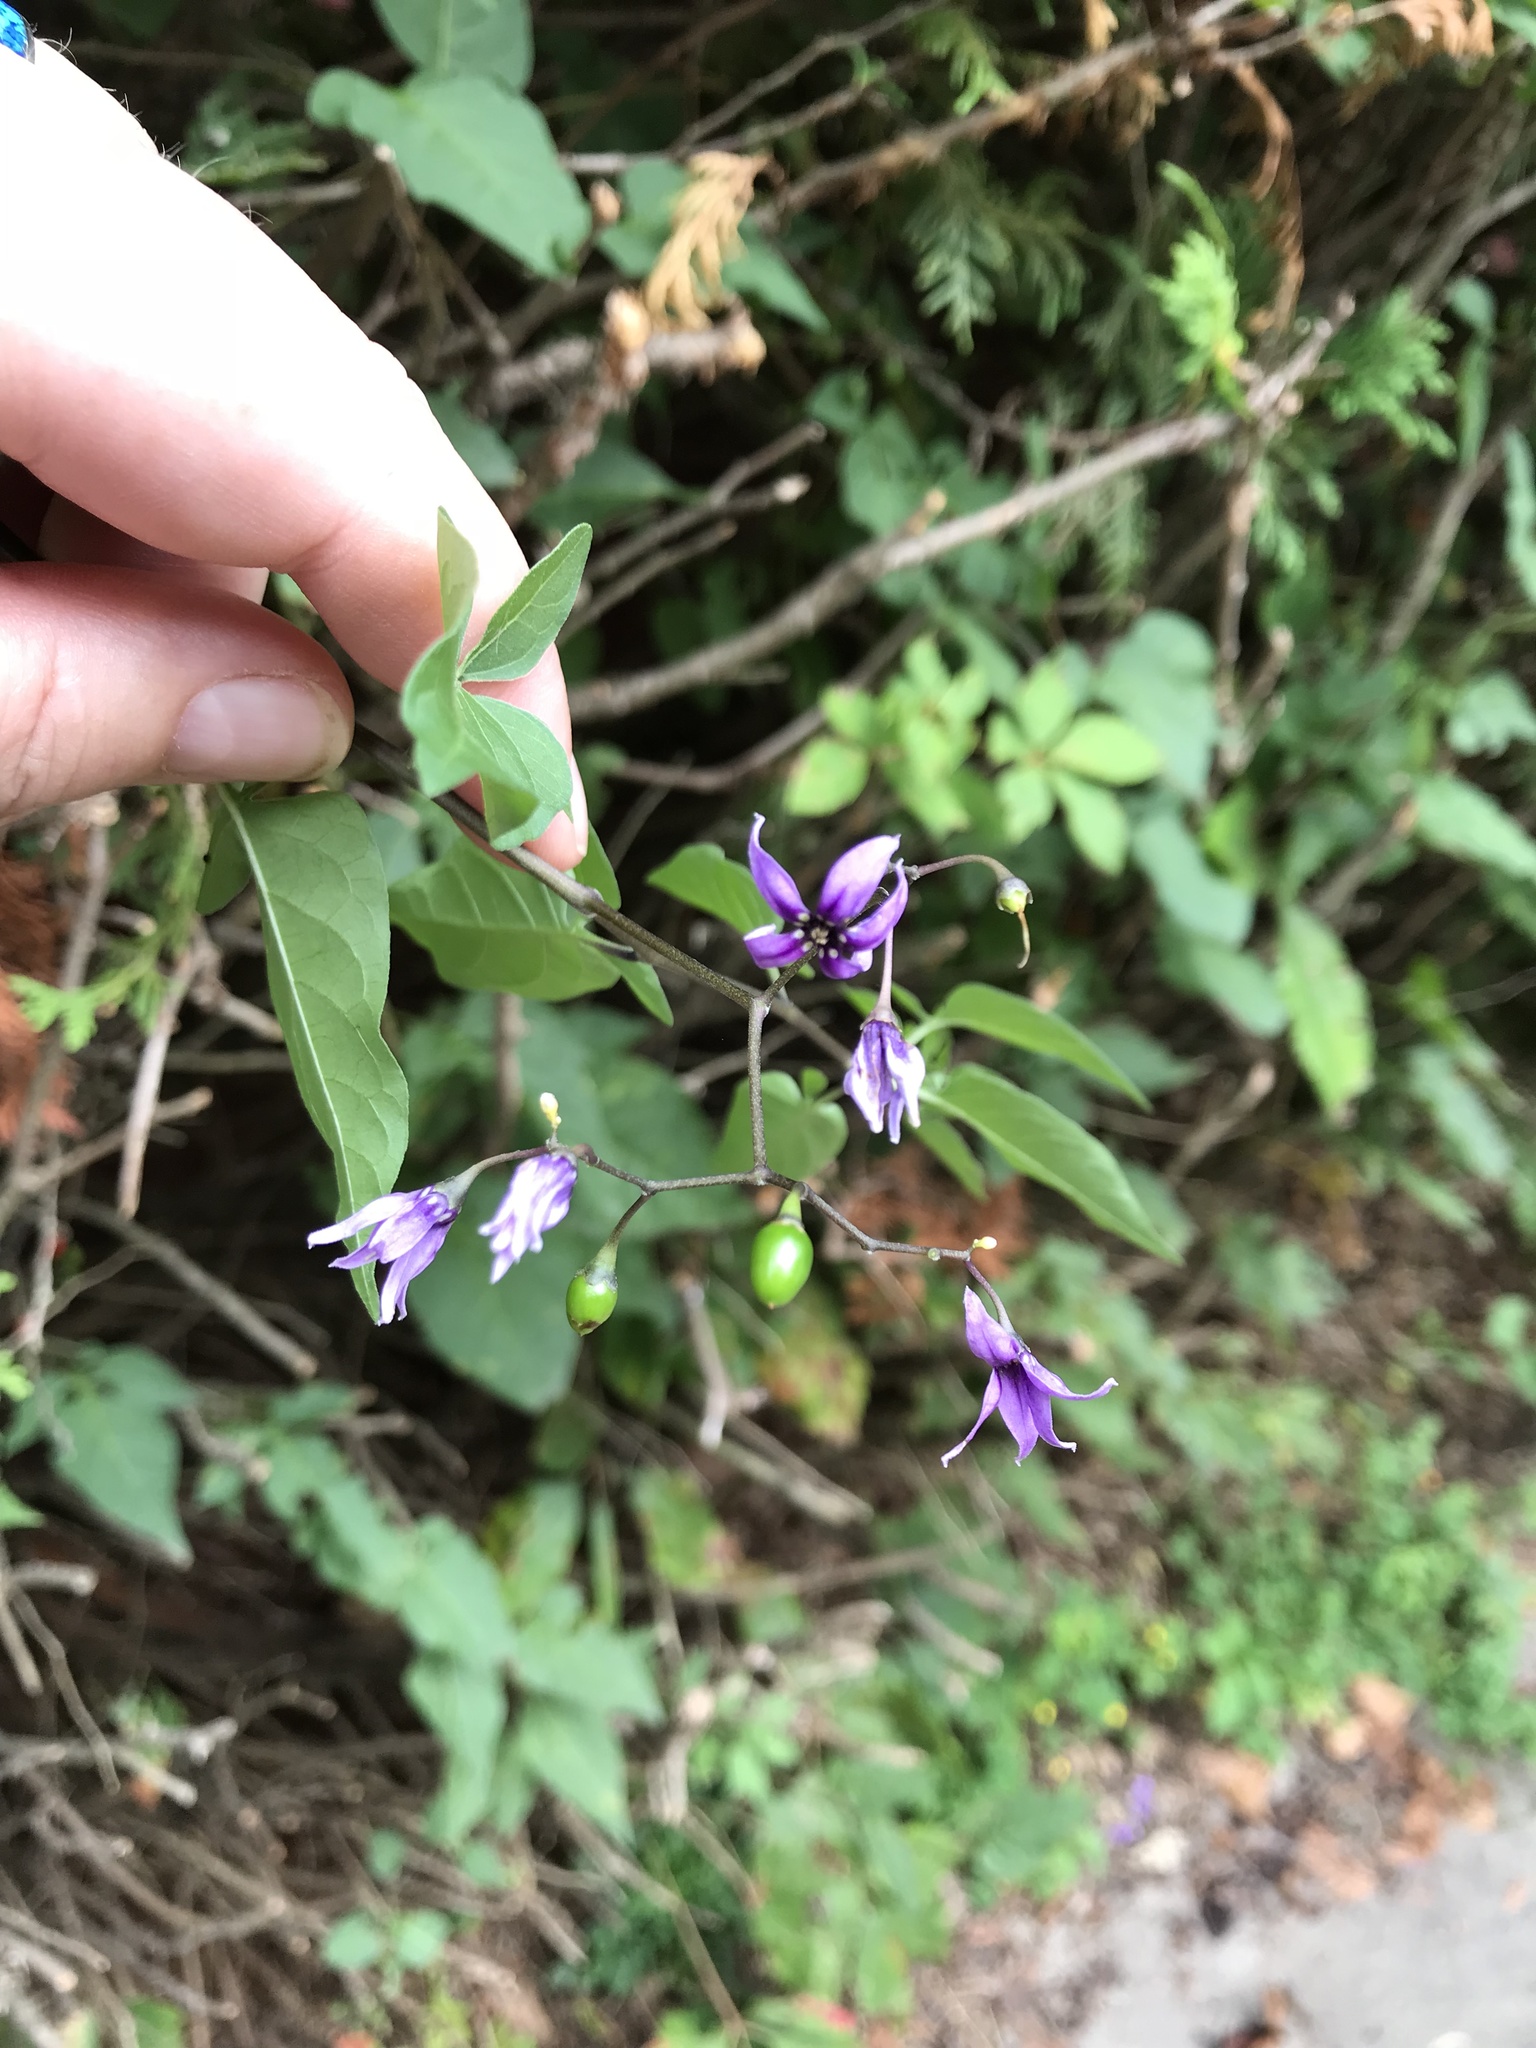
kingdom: Plantae
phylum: Tracheophyta
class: Magnoliopsida
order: Solanales
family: Solanaceae
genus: Solanum
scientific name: Solanum dulcamara
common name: Climbing nightshade
